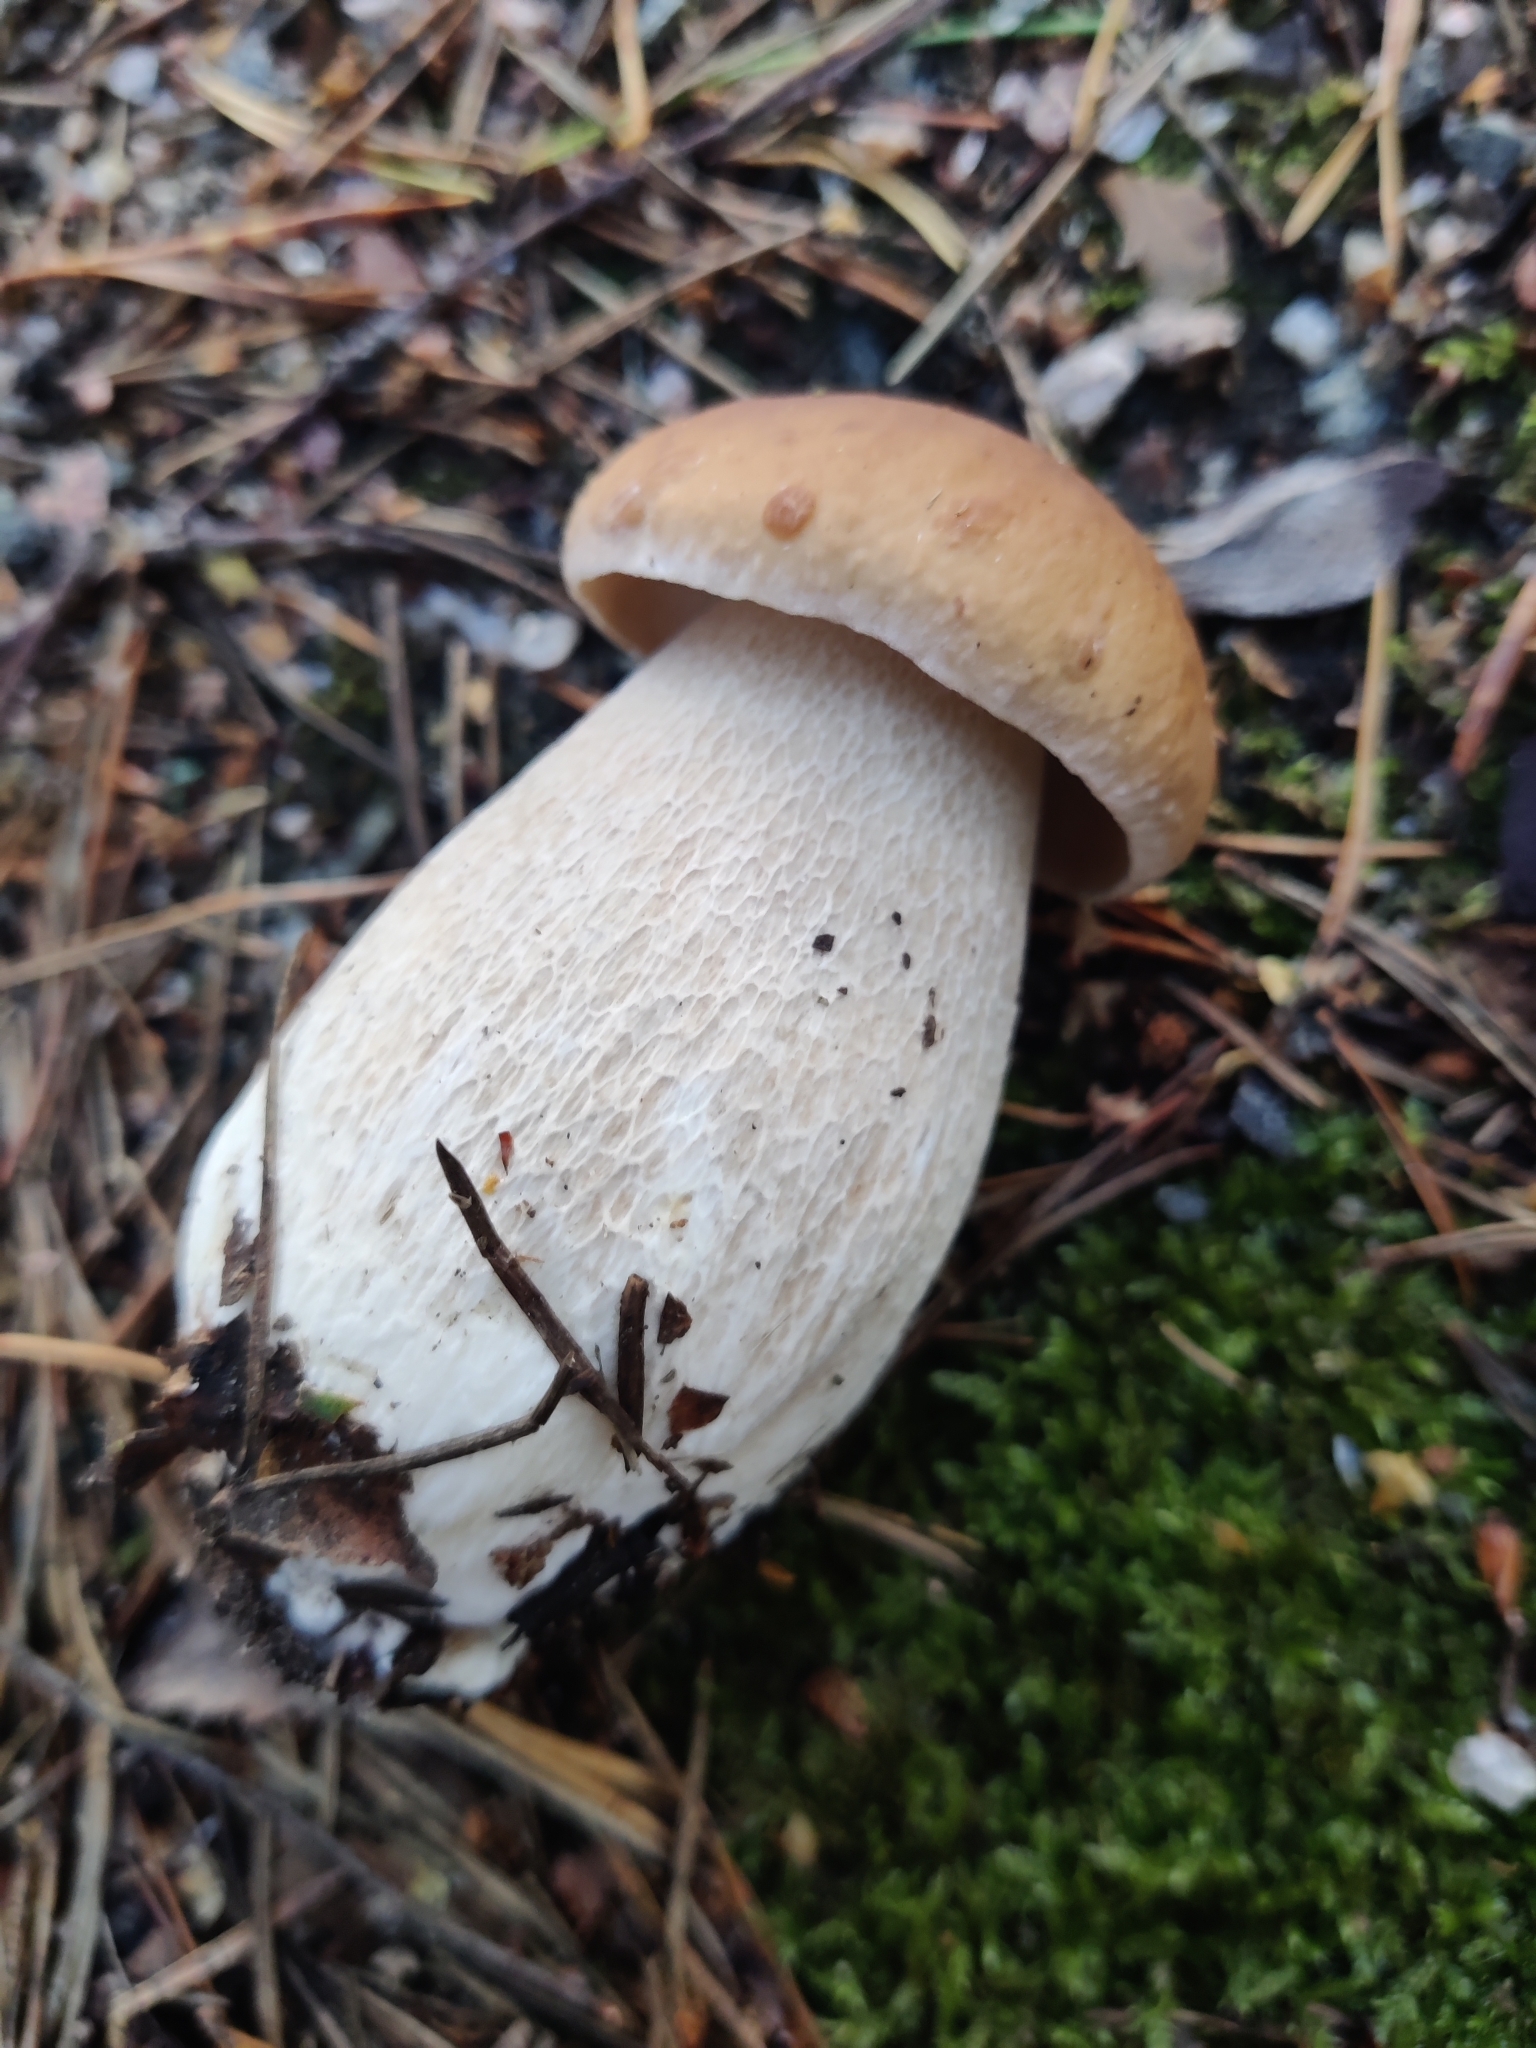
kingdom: Fungi
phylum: Basidiomycota
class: Agaricomycetes
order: Boletales
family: Boletaceae
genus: Boletus
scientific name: Boletus edulis
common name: Cep
